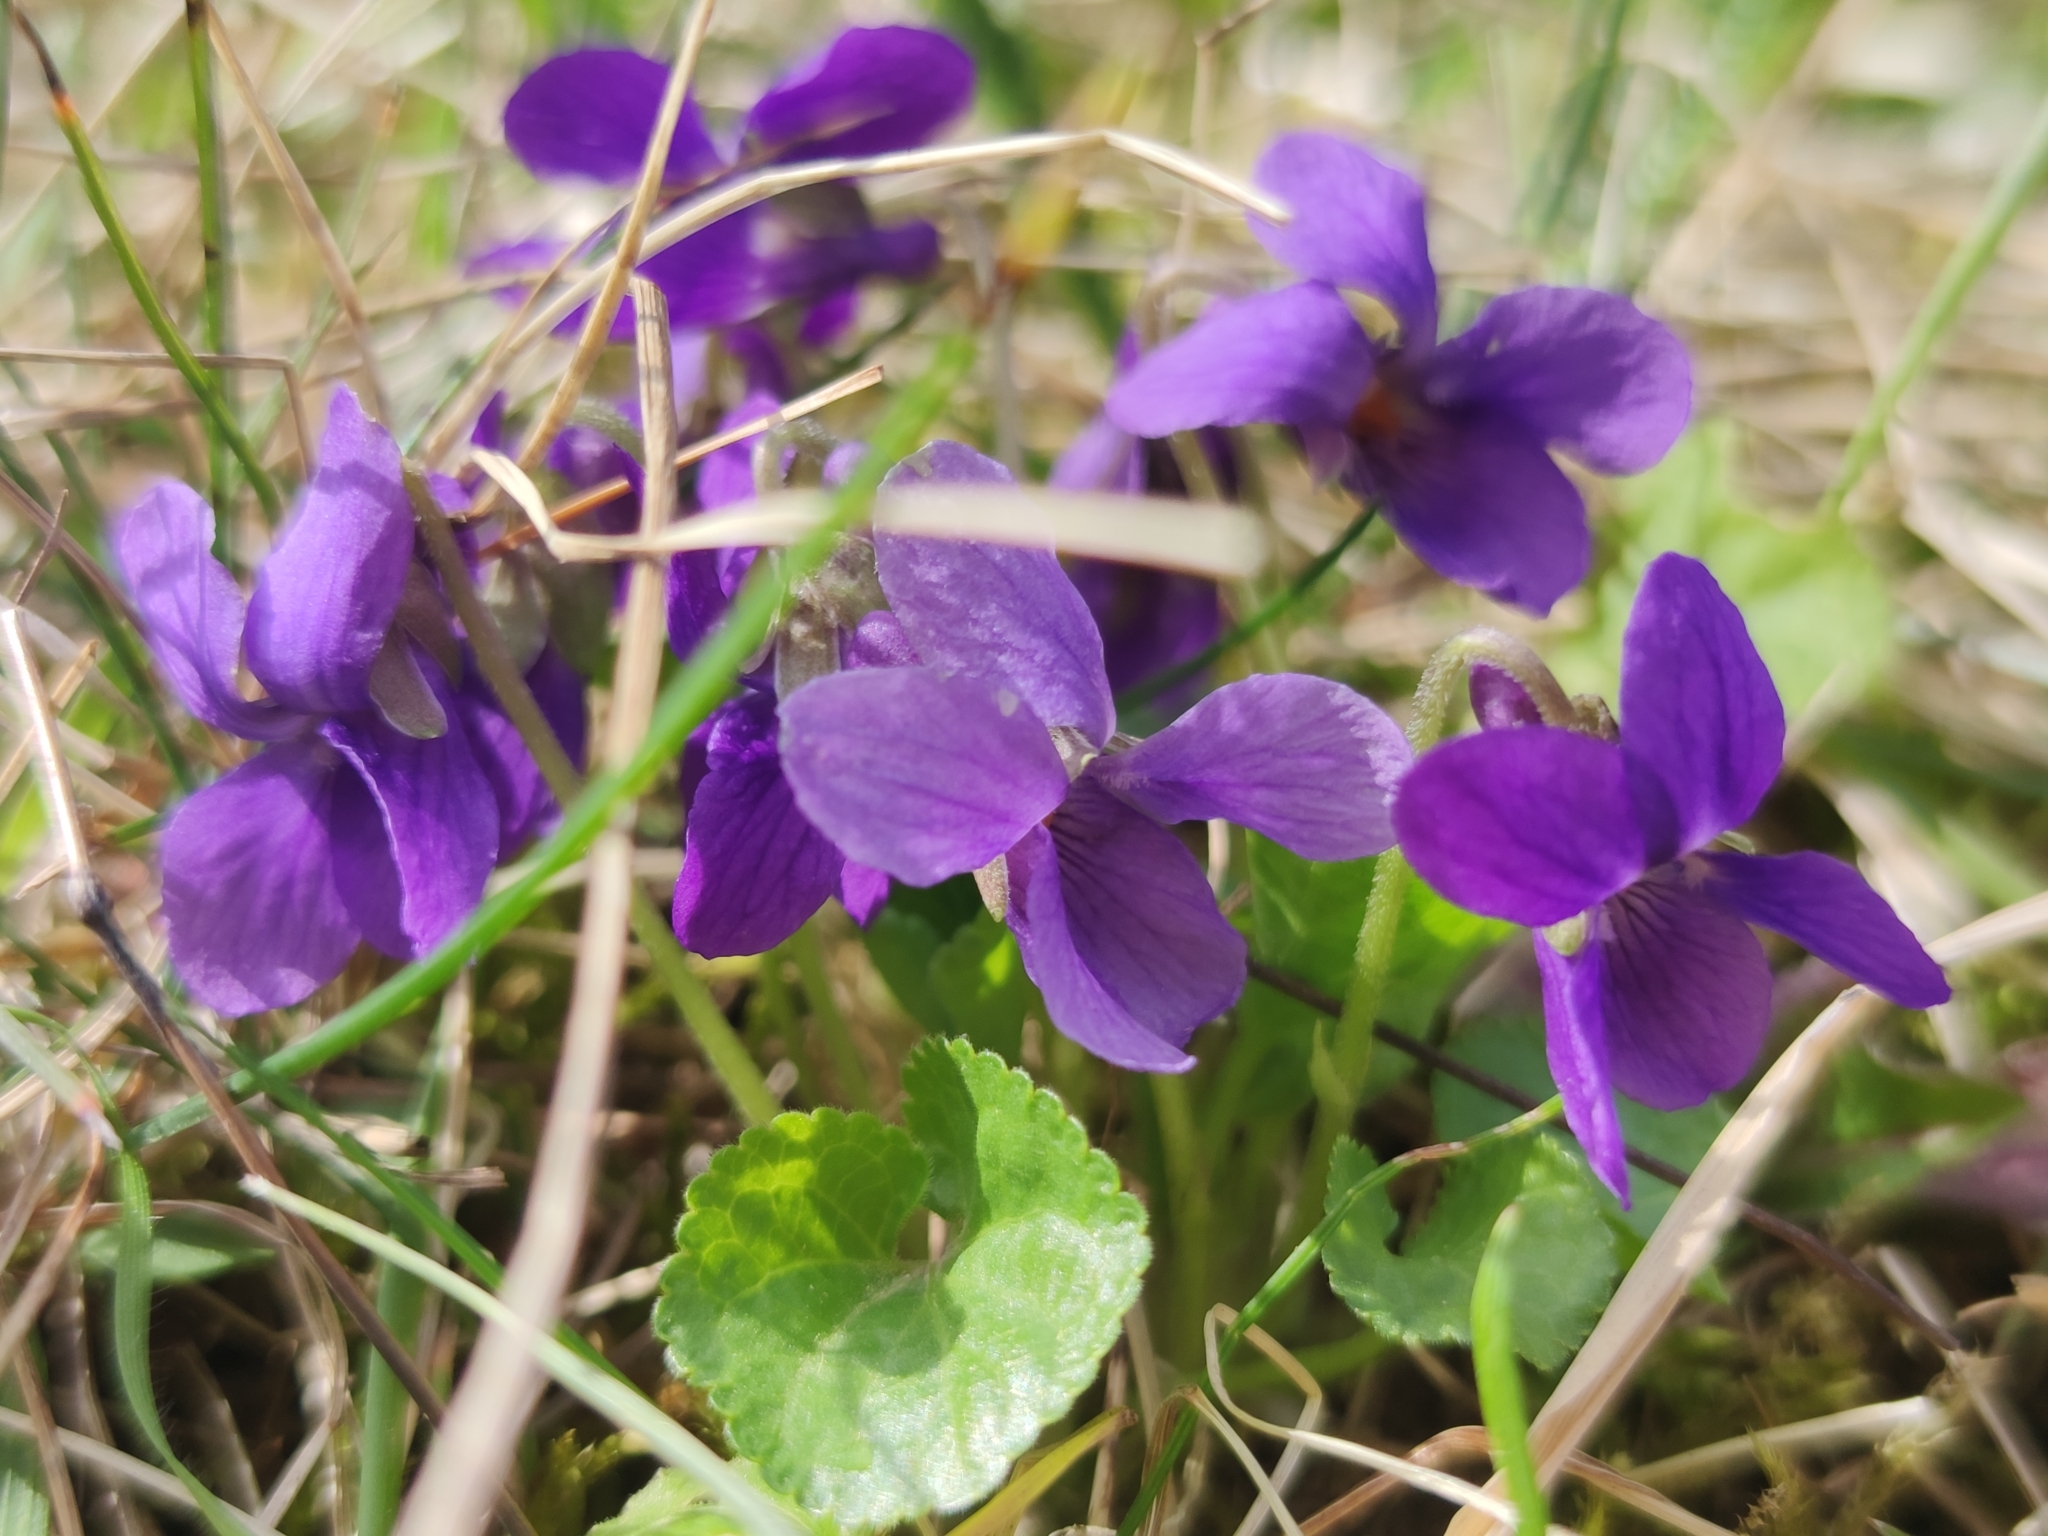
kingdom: Plantae
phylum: Tracheophyta
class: Magnoliopsida
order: Malpighiales
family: Violaceae
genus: Viola
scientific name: Viola odorata
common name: Sweet violet
